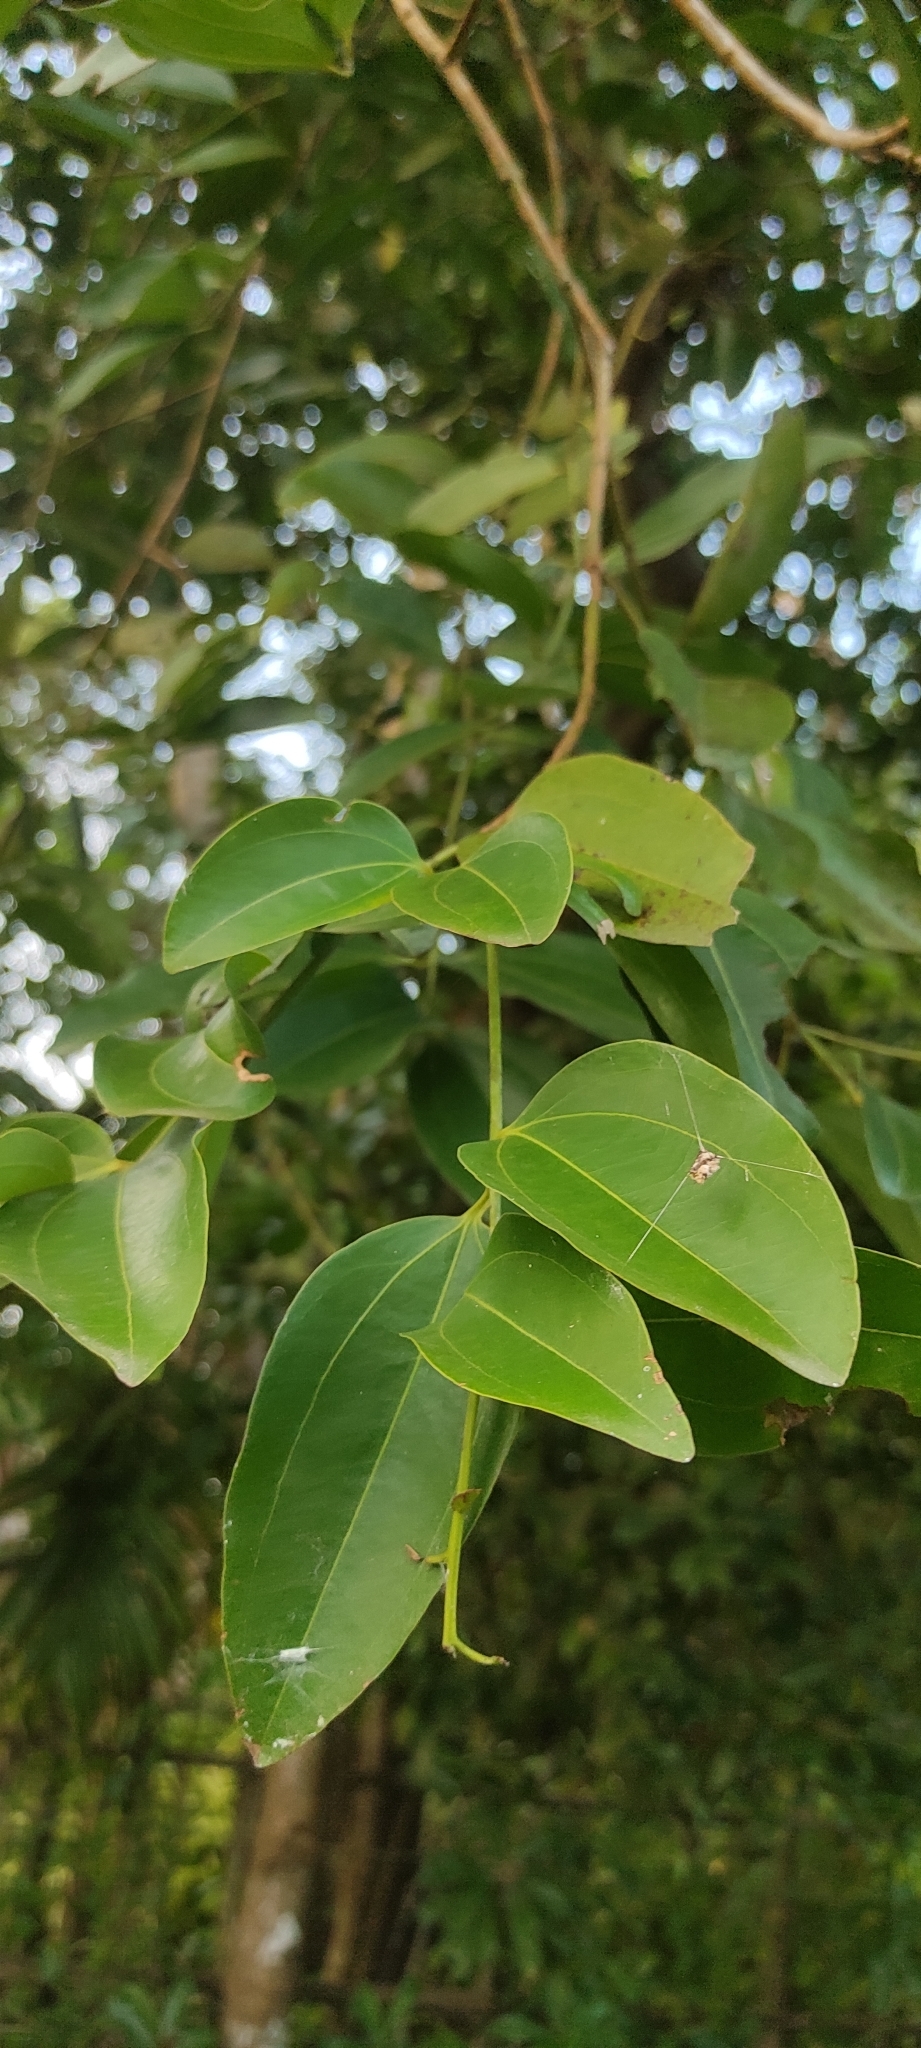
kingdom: Plantae
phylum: Tracheophyta
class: Magnoliopsida
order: Laurales
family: Lauraceae
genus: Cinnamomum
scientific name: Cinnamomum burmanni
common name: Padang cassia
